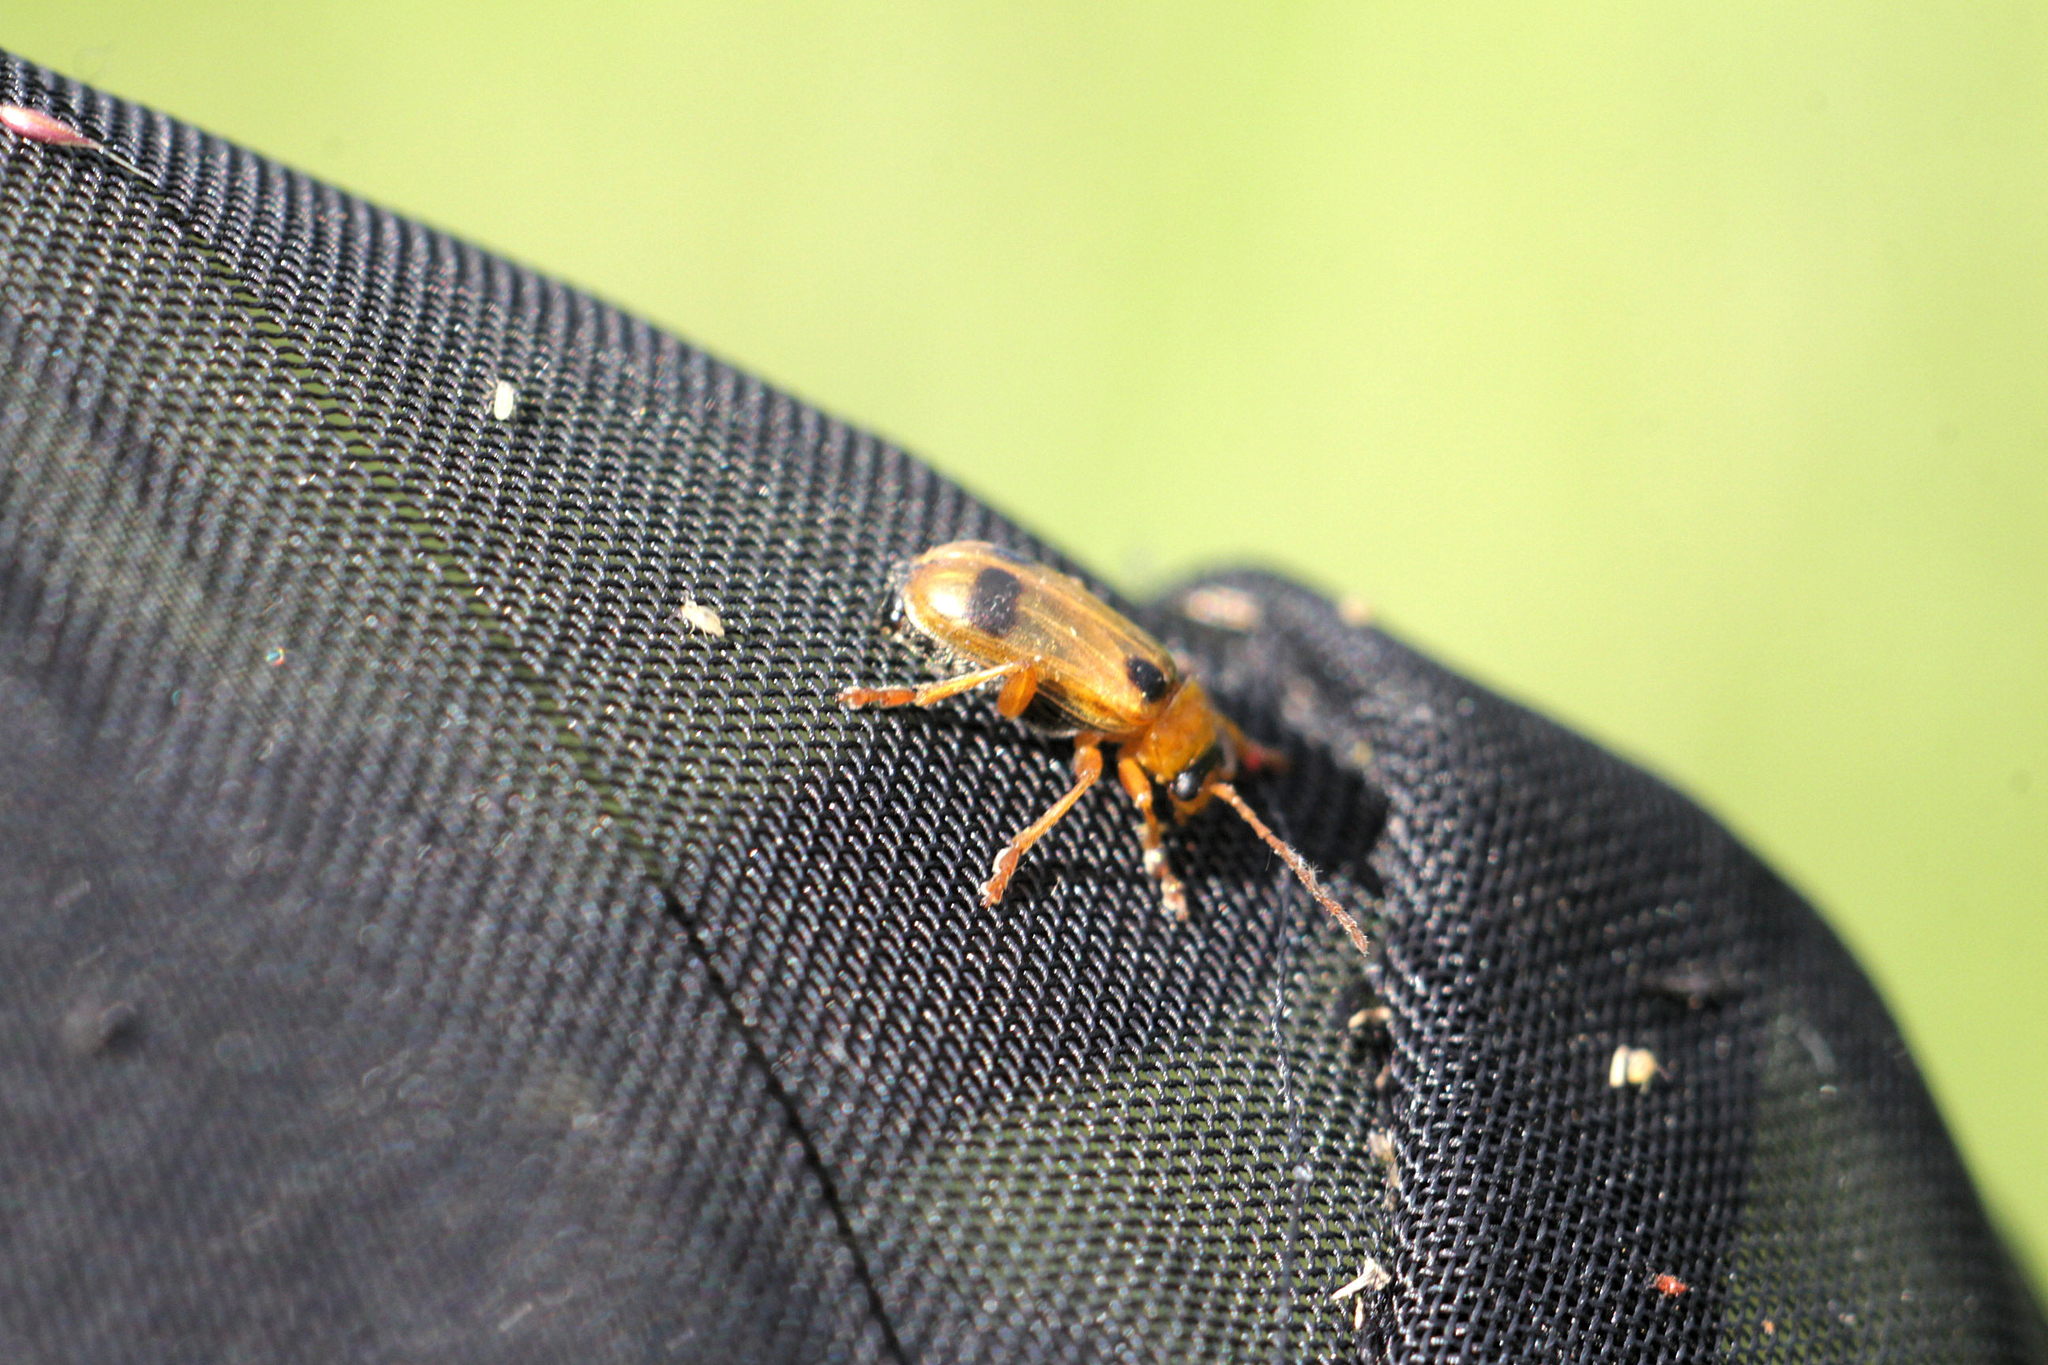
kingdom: Animalia
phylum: Arthropoda
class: Insecta
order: Coleoptera
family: Chrysomelidae
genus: Phyllobrotica
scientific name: Phyllobrotica quadrimaculata
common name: Skullcap leaf beetle
